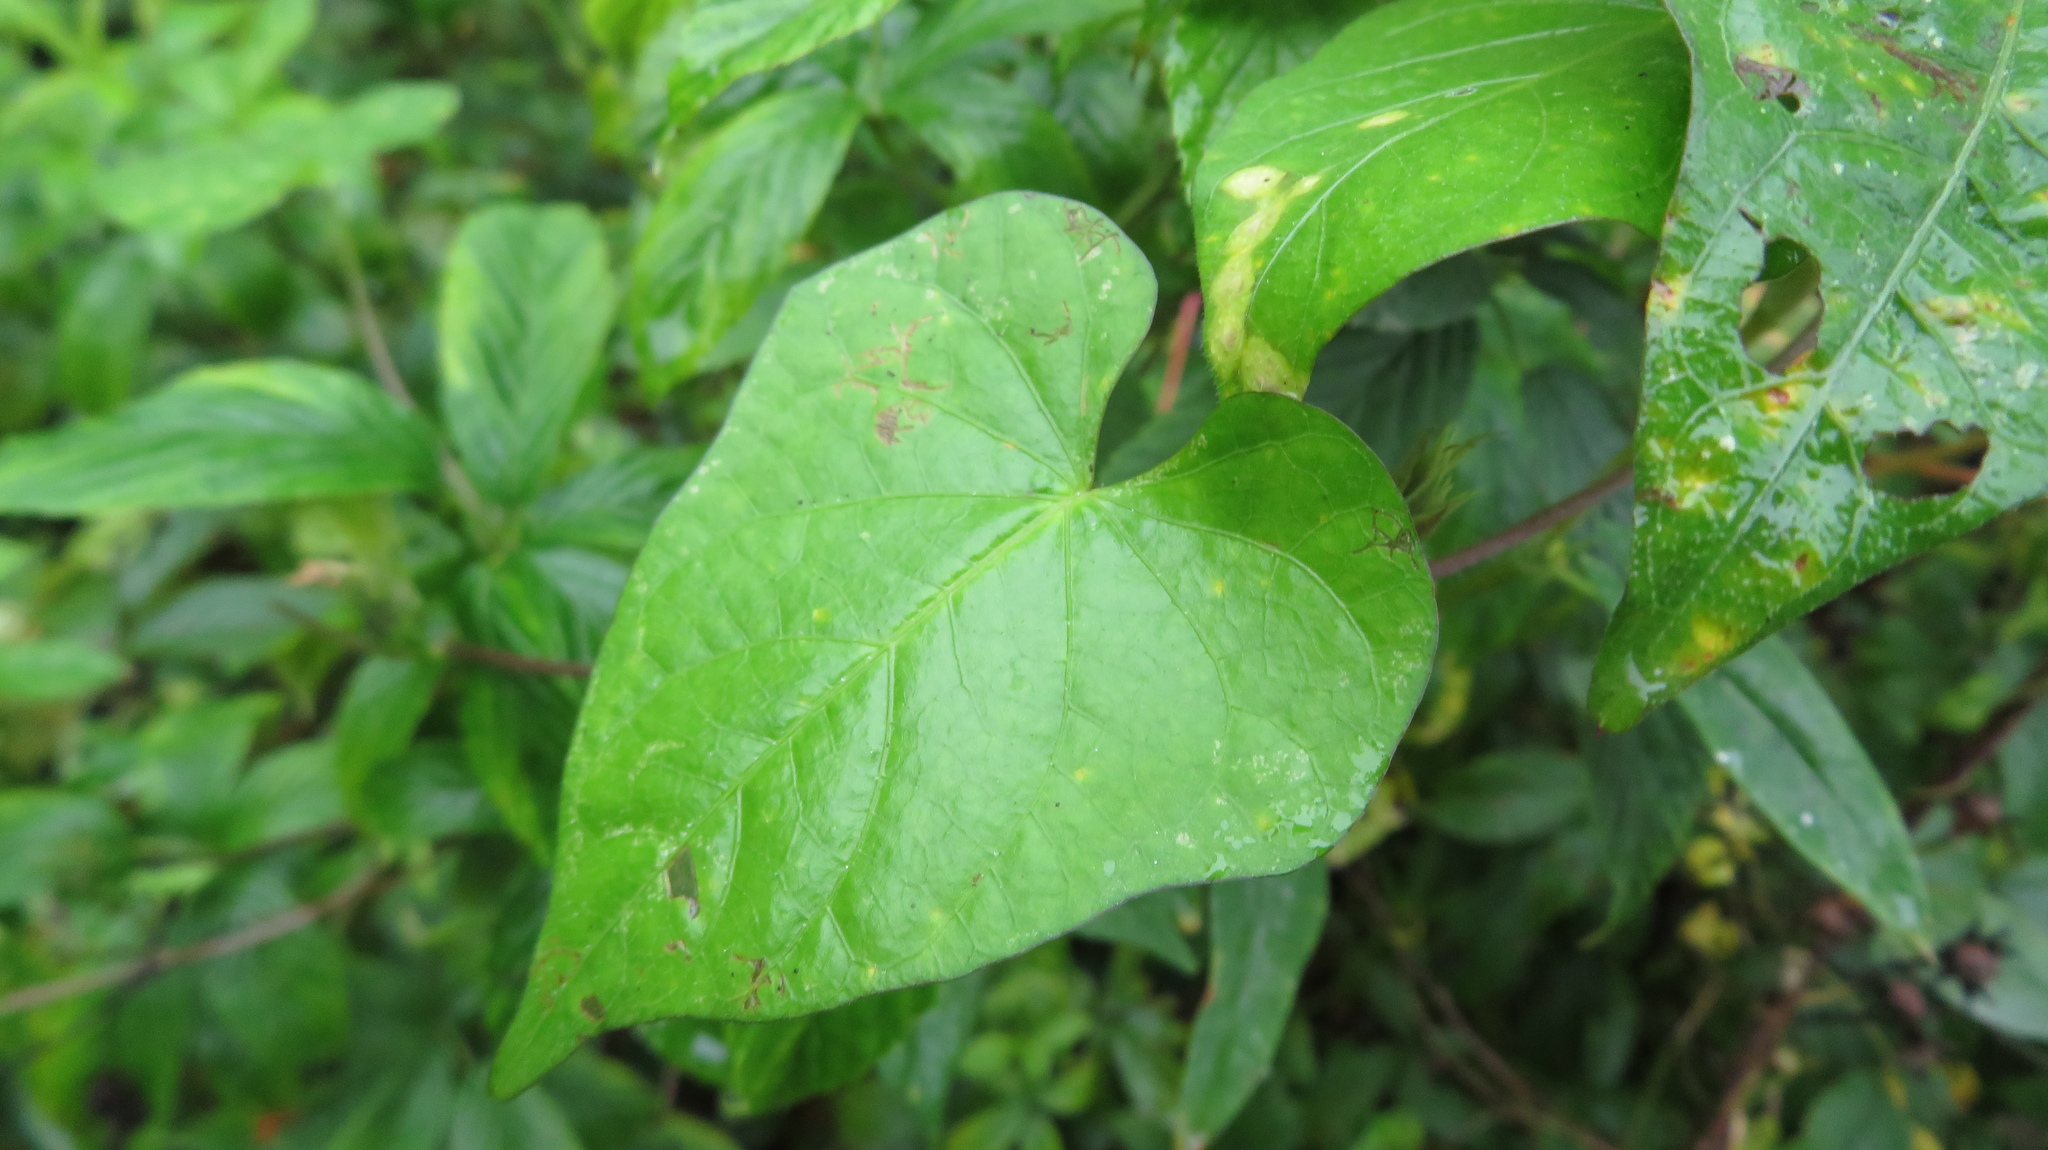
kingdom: Plantae
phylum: Tracheophyta
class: Magnoliopsida
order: Solanales
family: Convolvulaceae
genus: Ipomoea
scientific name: Ipomoea lacunosa
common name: White morning-glory
